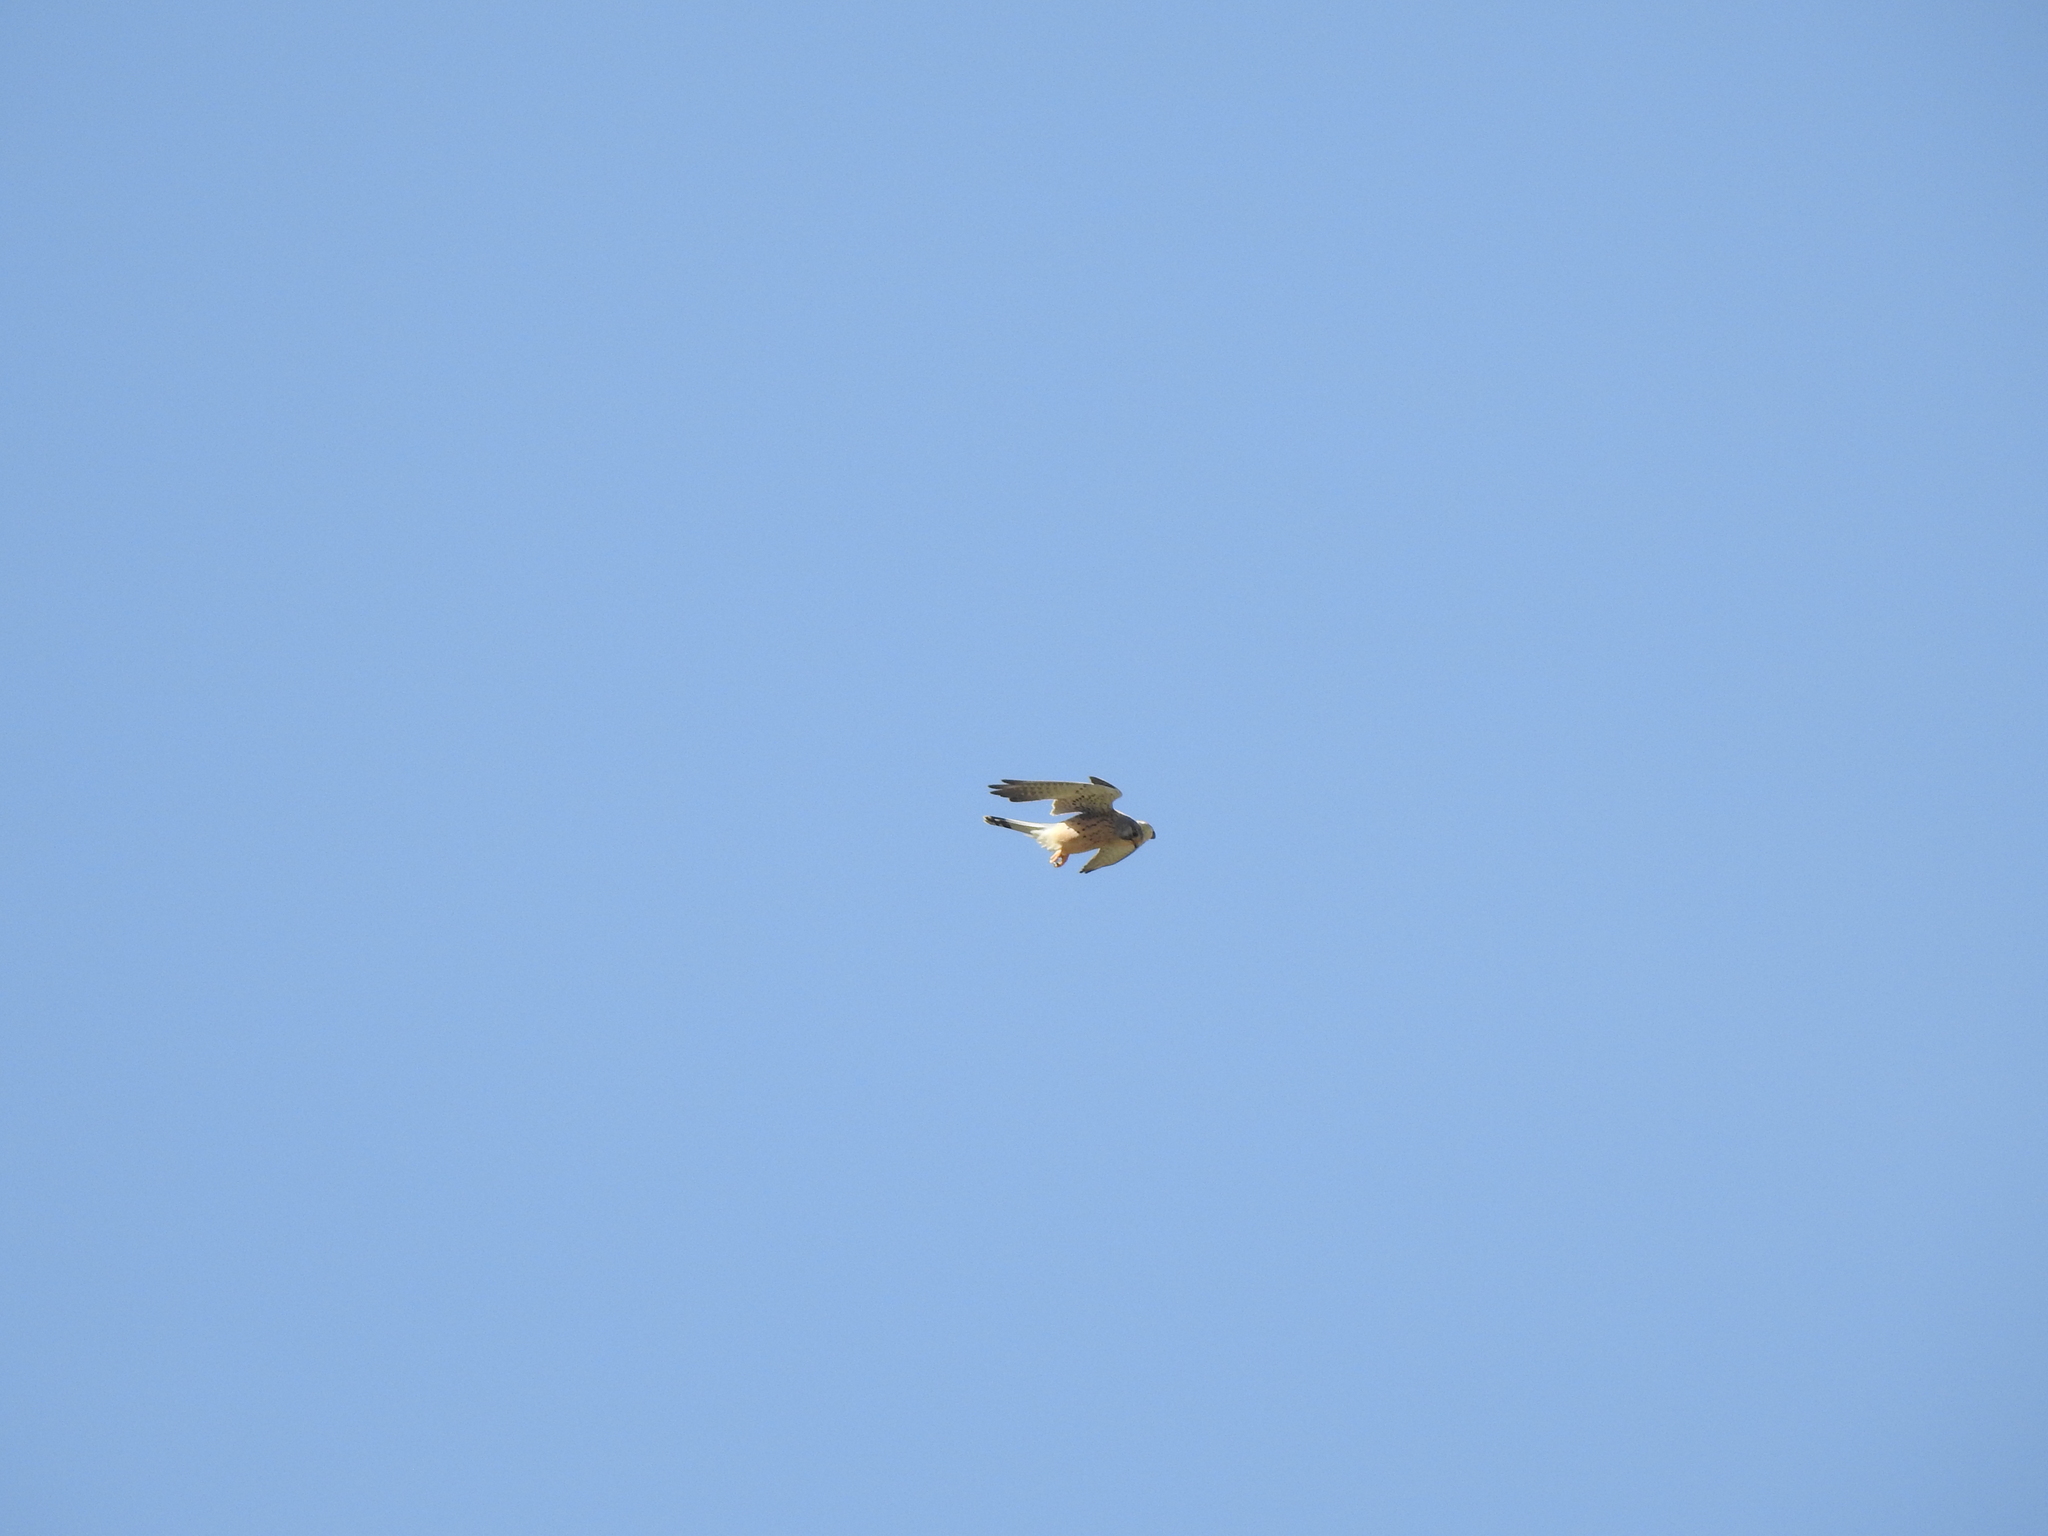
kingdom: Animalia
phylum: Chordata
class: Aves
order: Falconiformes
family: Falconidae
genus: Falco
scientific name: Falco tinnunculus
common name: Common kestrel
